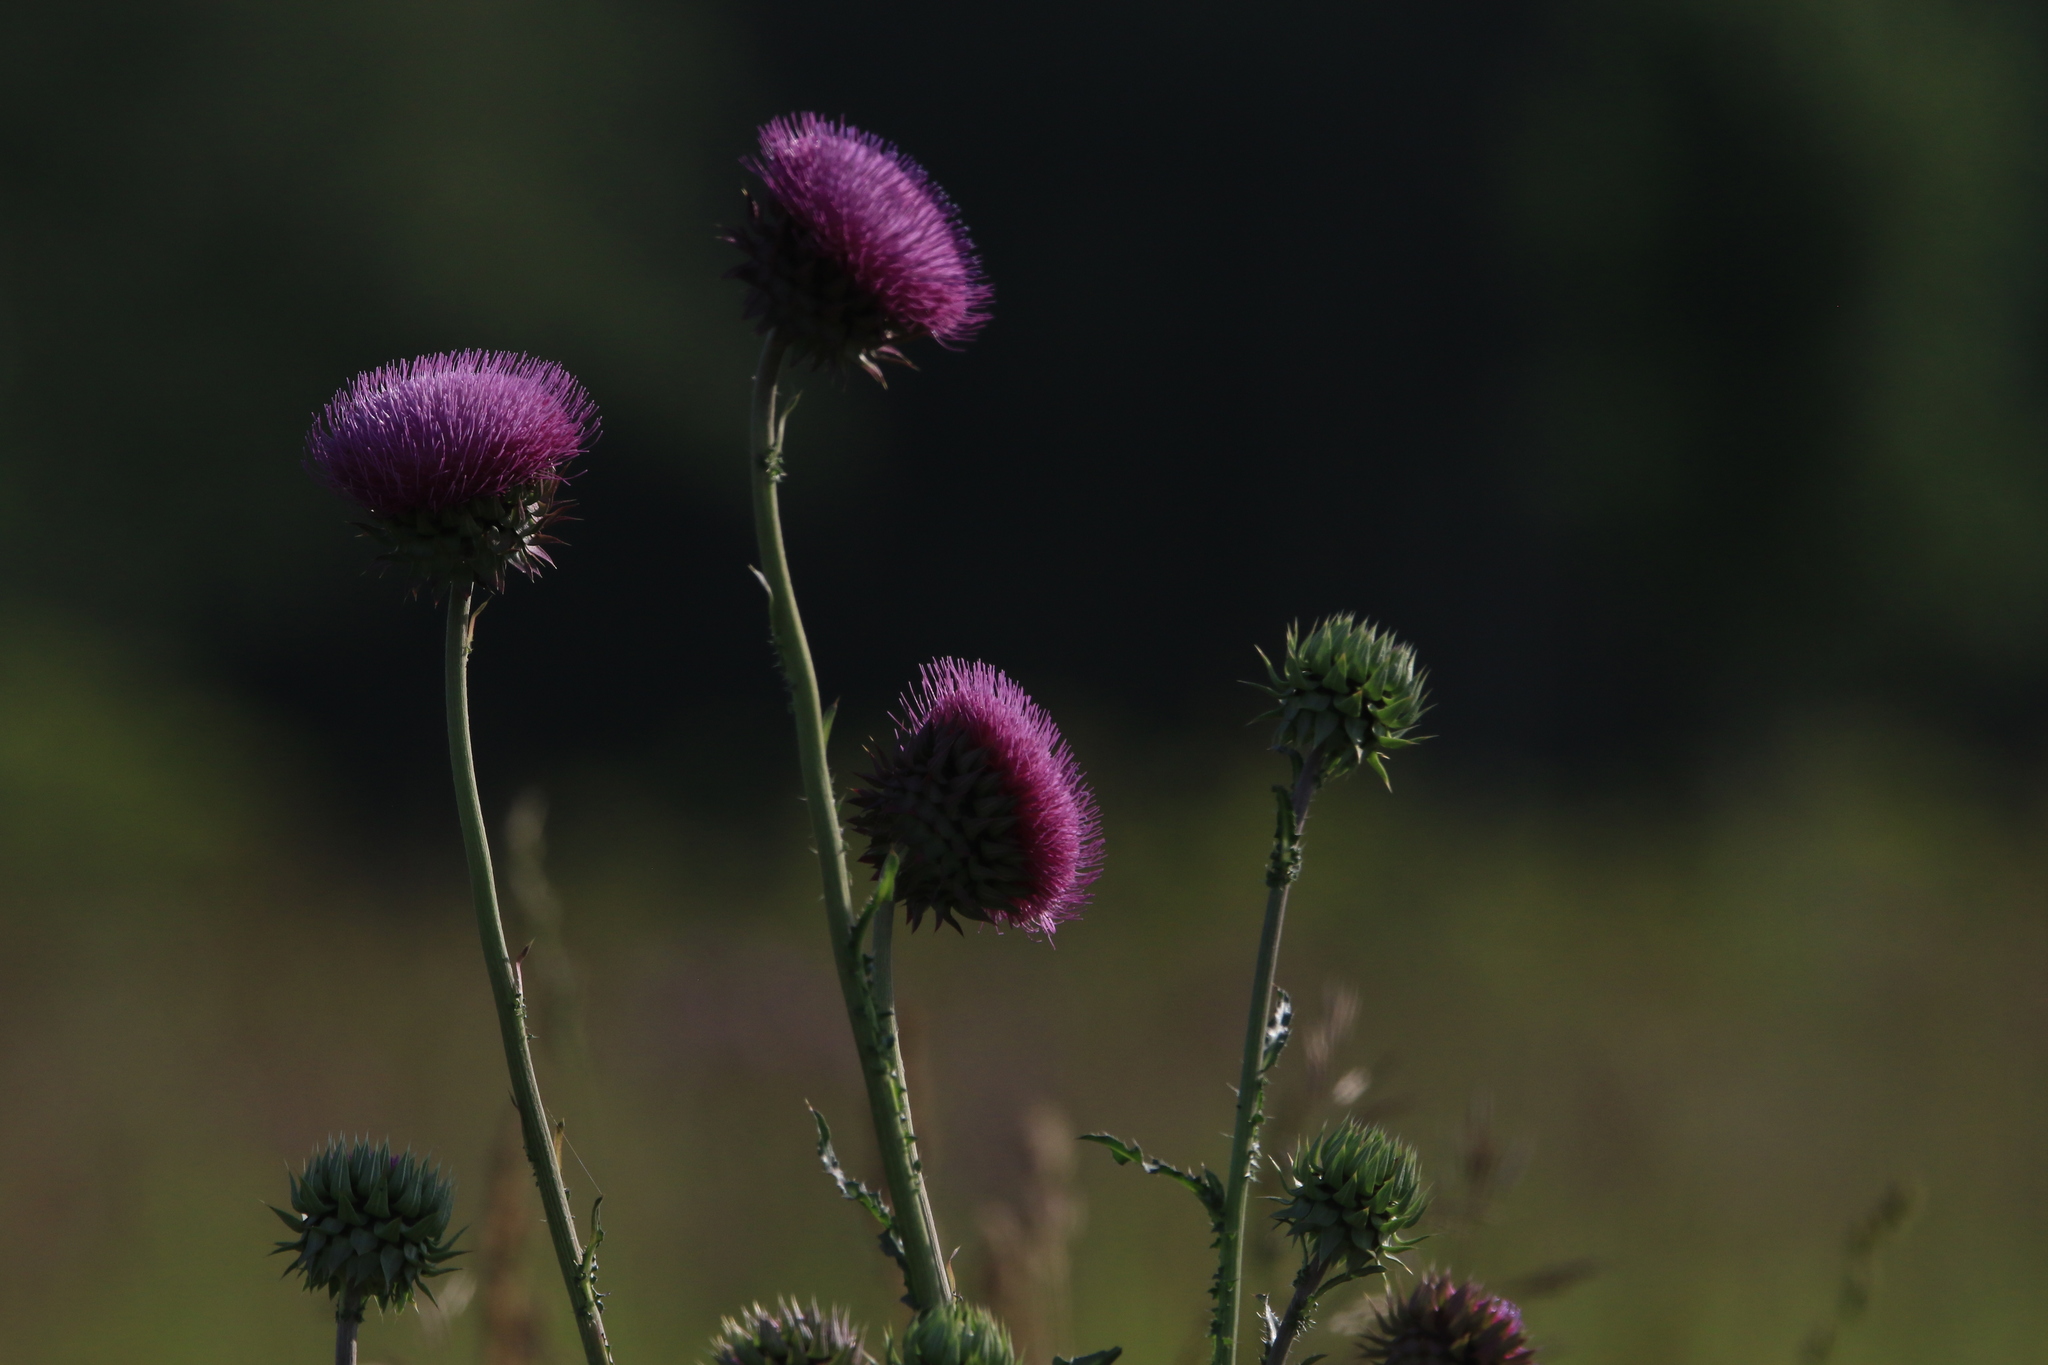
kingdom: Plantae
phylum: Tracheophyta
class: Magnoliopsida
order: Asterales
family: Asteraceae
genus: Carduus
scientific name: Carduus nutans
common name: Musk thistle
